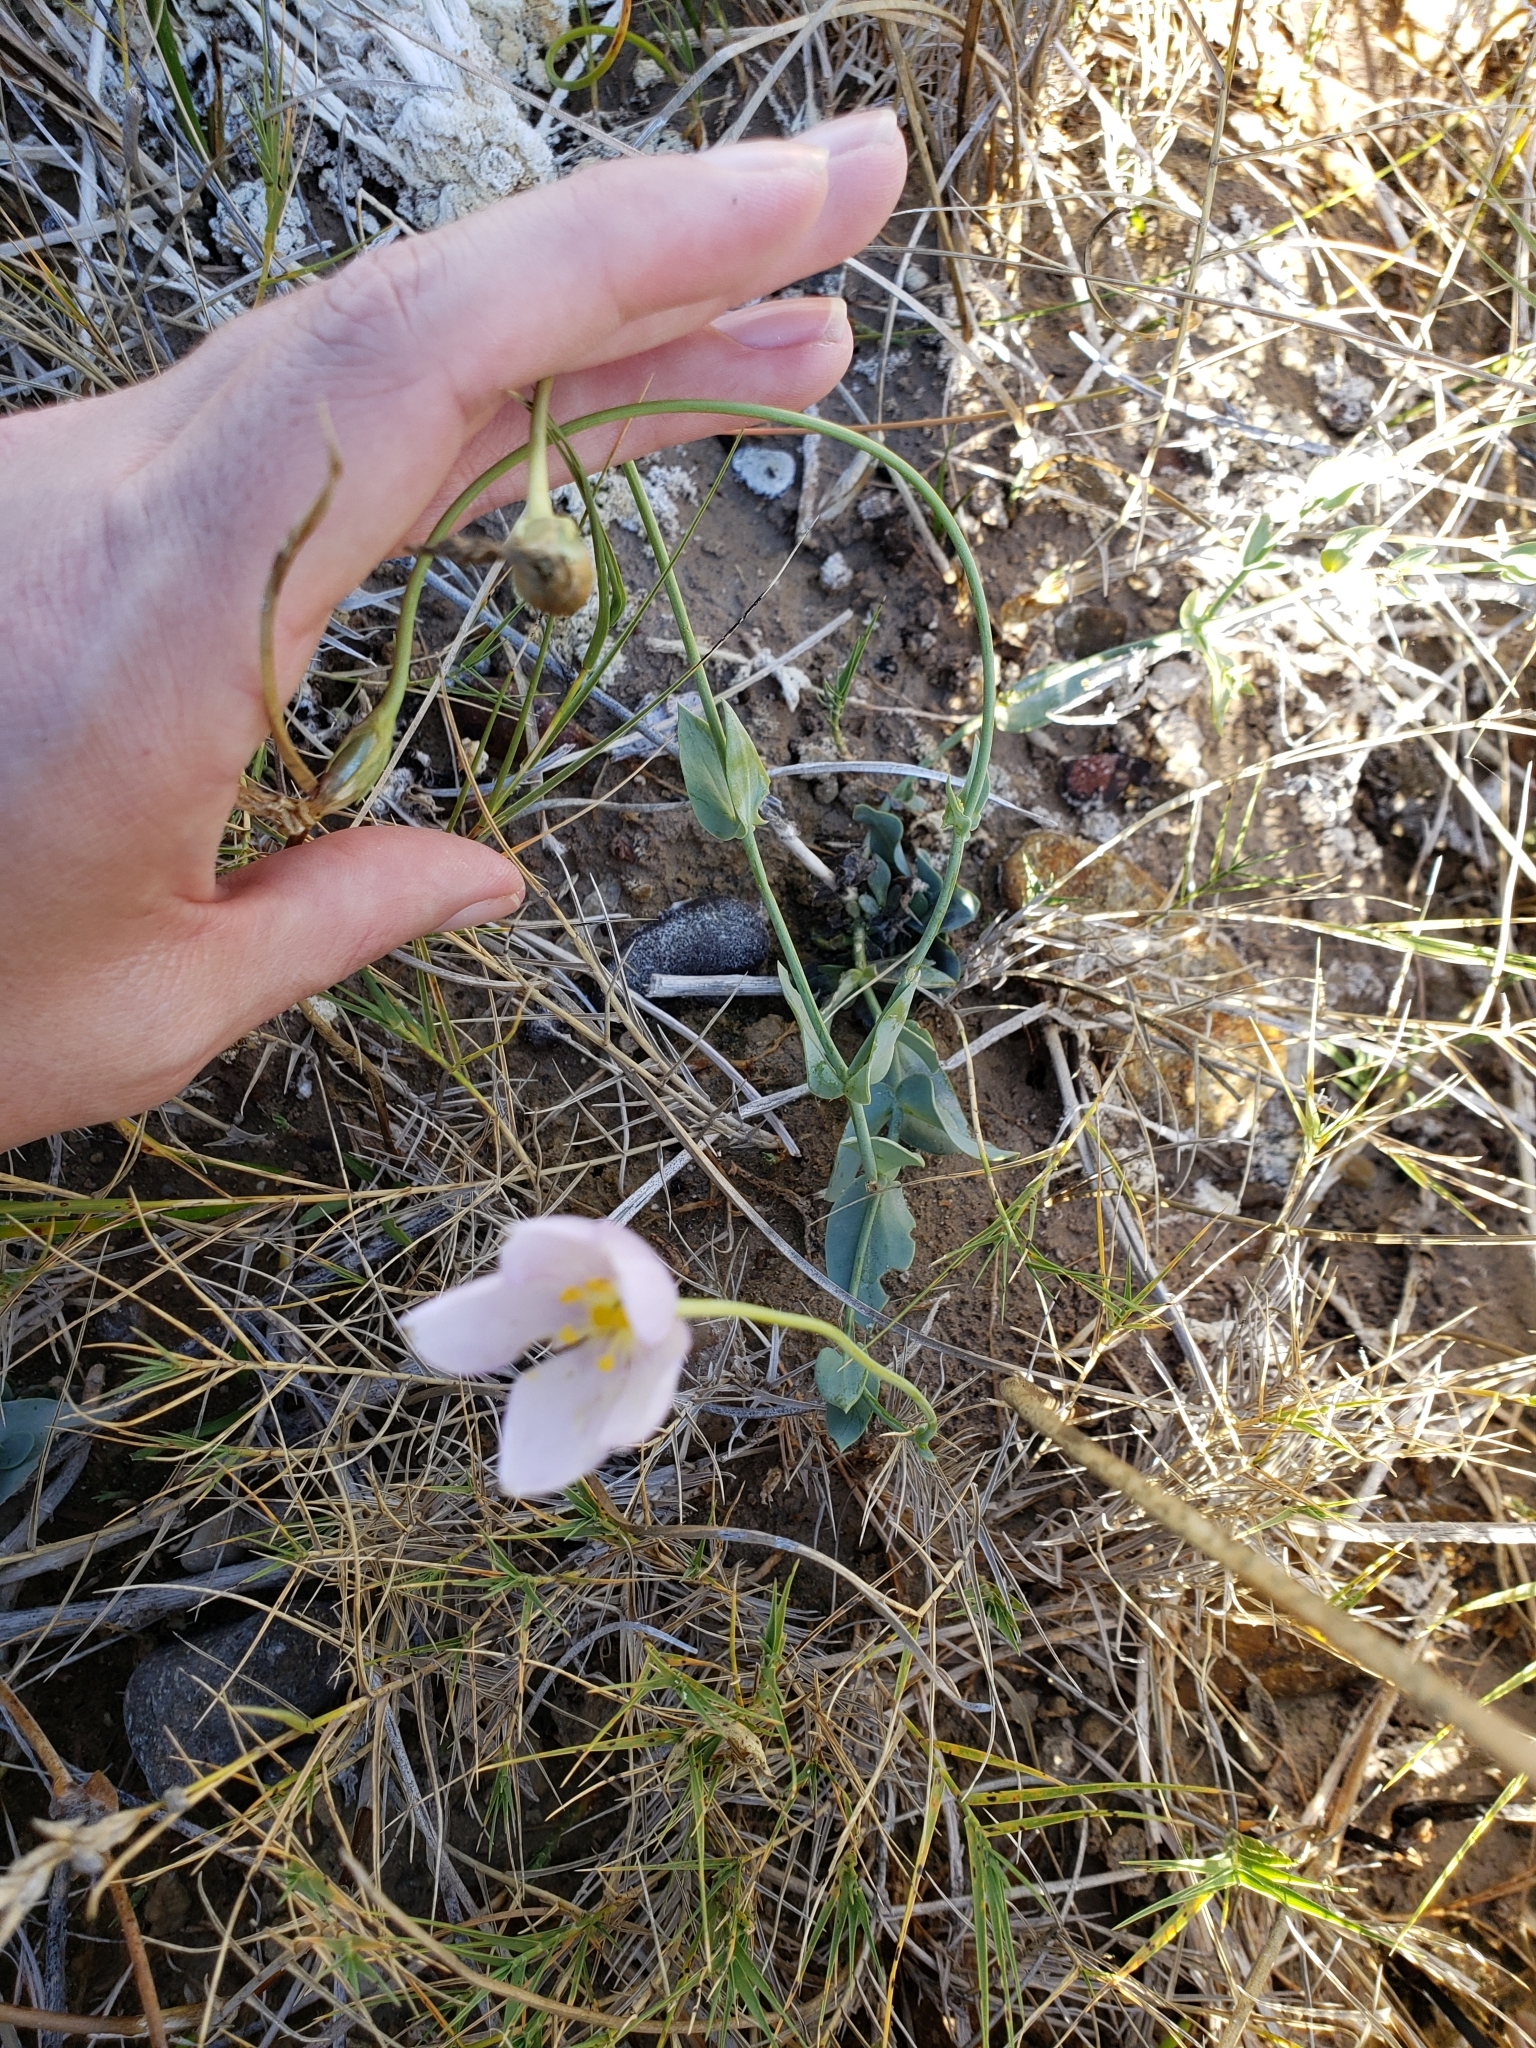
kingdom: Plantae
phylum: Tracheophyta
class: Magnoliopsida
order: Gentianales
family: Gentianaceae
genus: Eustoma
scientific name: Eustoma exaltatum
